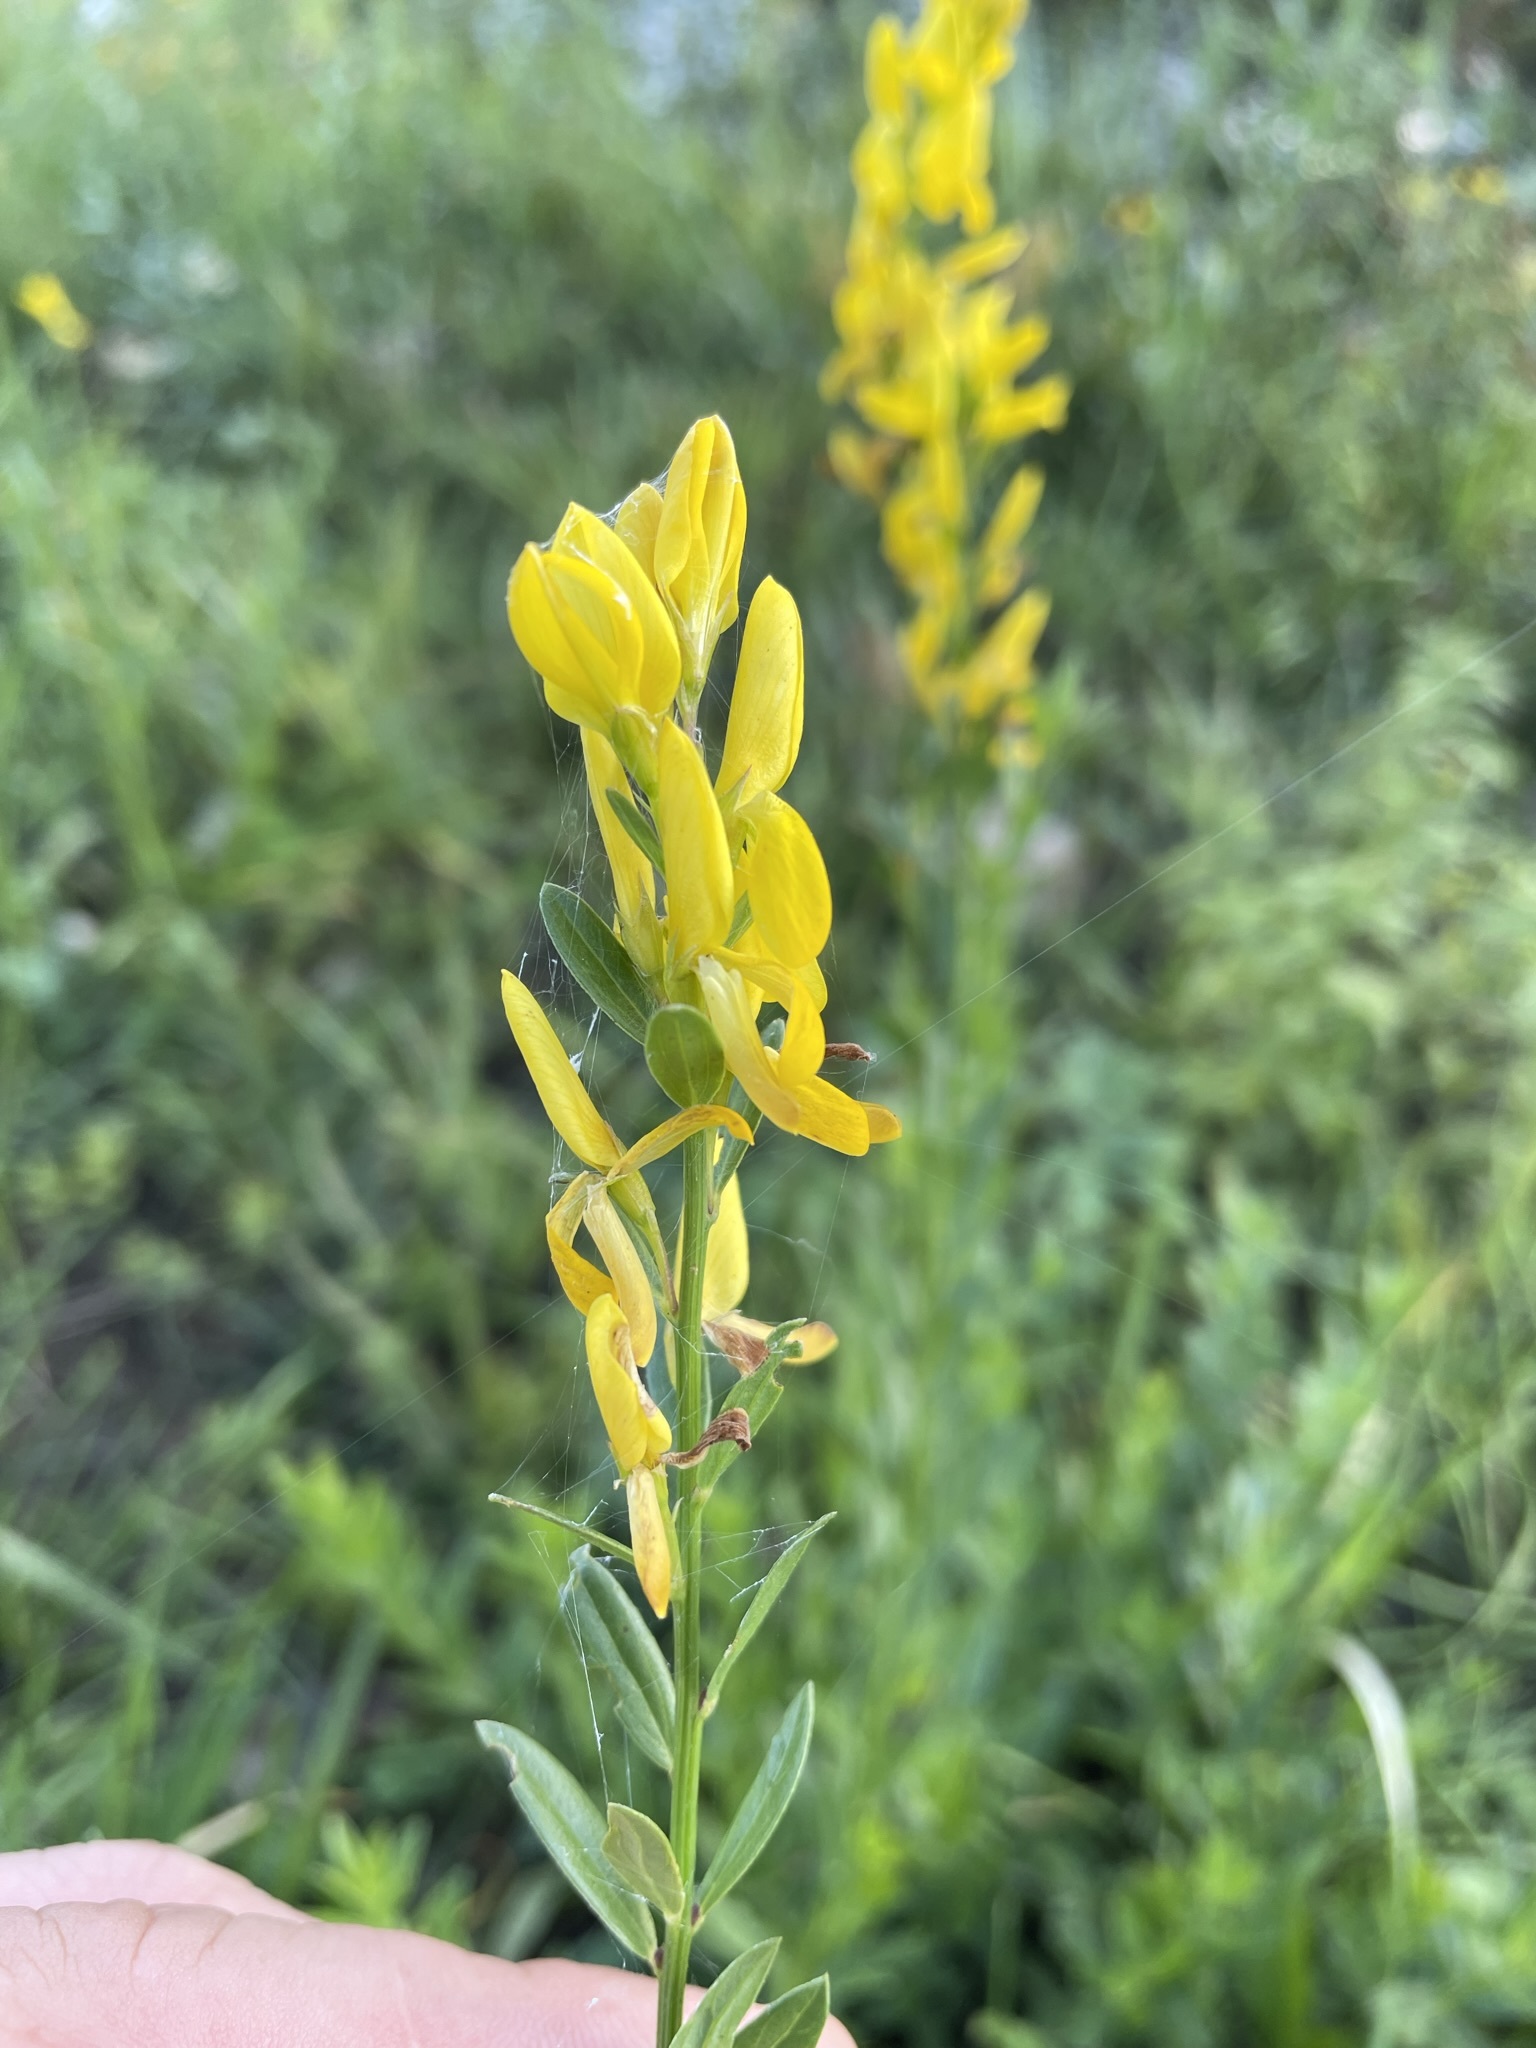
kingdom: Plantae
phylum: Tracheophyta
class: Magnoliopsida
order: Fabales
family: Fabaceae
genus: Genista
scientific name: Genista tinctoria
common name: Dyer's greenweed
